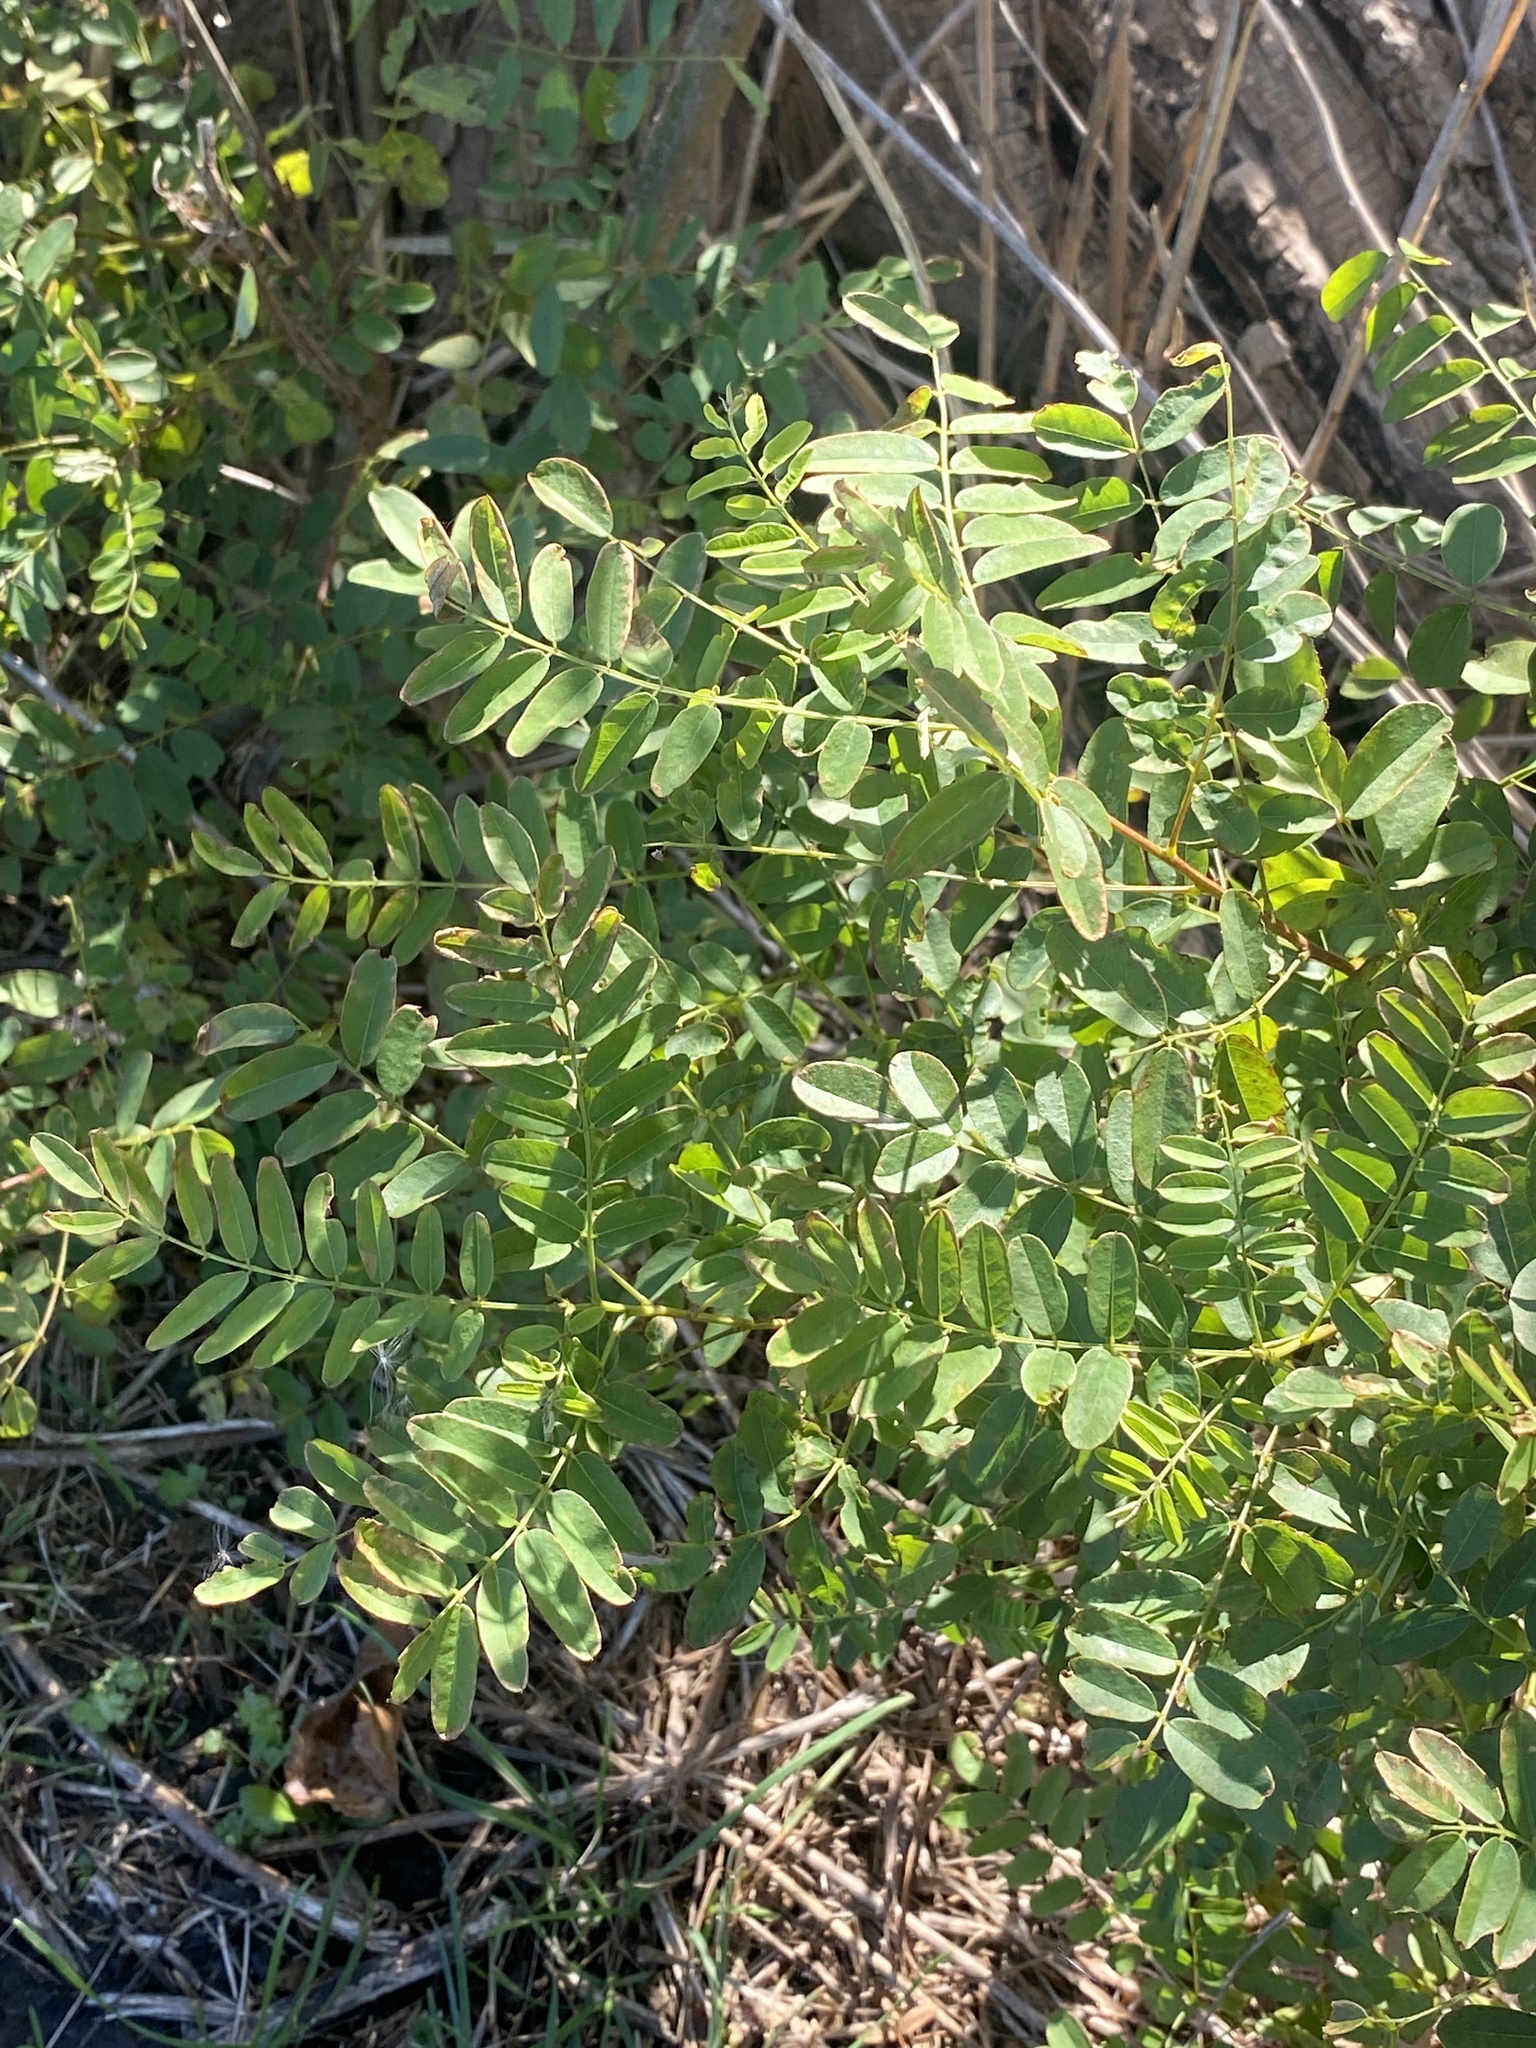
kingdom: Plantae
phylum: Tracheophyta
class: Magnoliopsida
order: Fabales
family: Fabaceae
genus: Amorpha
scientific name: Amorpha fruticosa
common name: False indigo
